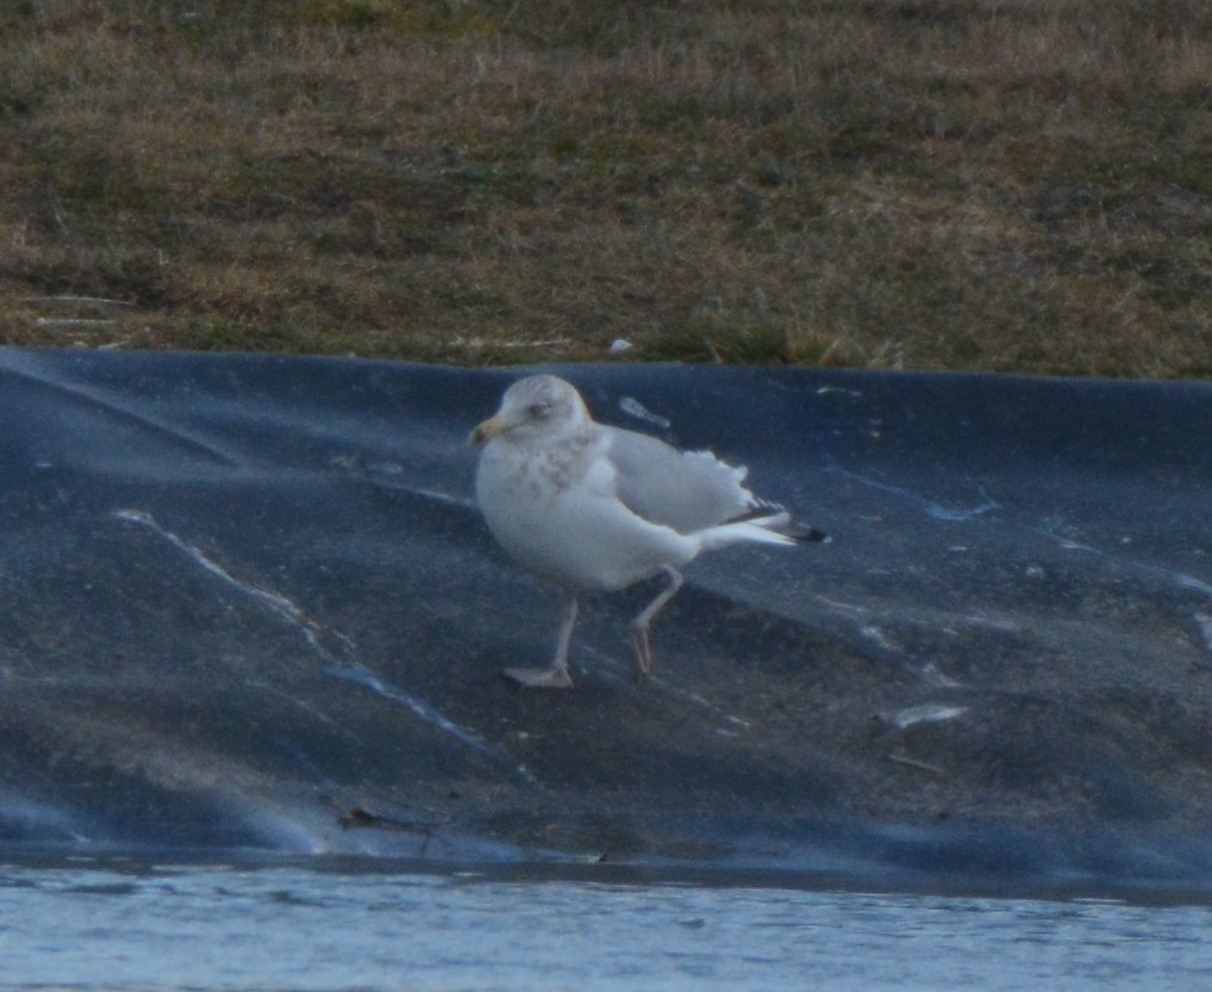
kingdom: Animalia
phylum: Chordata
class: Aves
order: Charadriiformes
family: Laridae
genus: Larus
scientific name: Larus argentatus
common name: Herring gull
